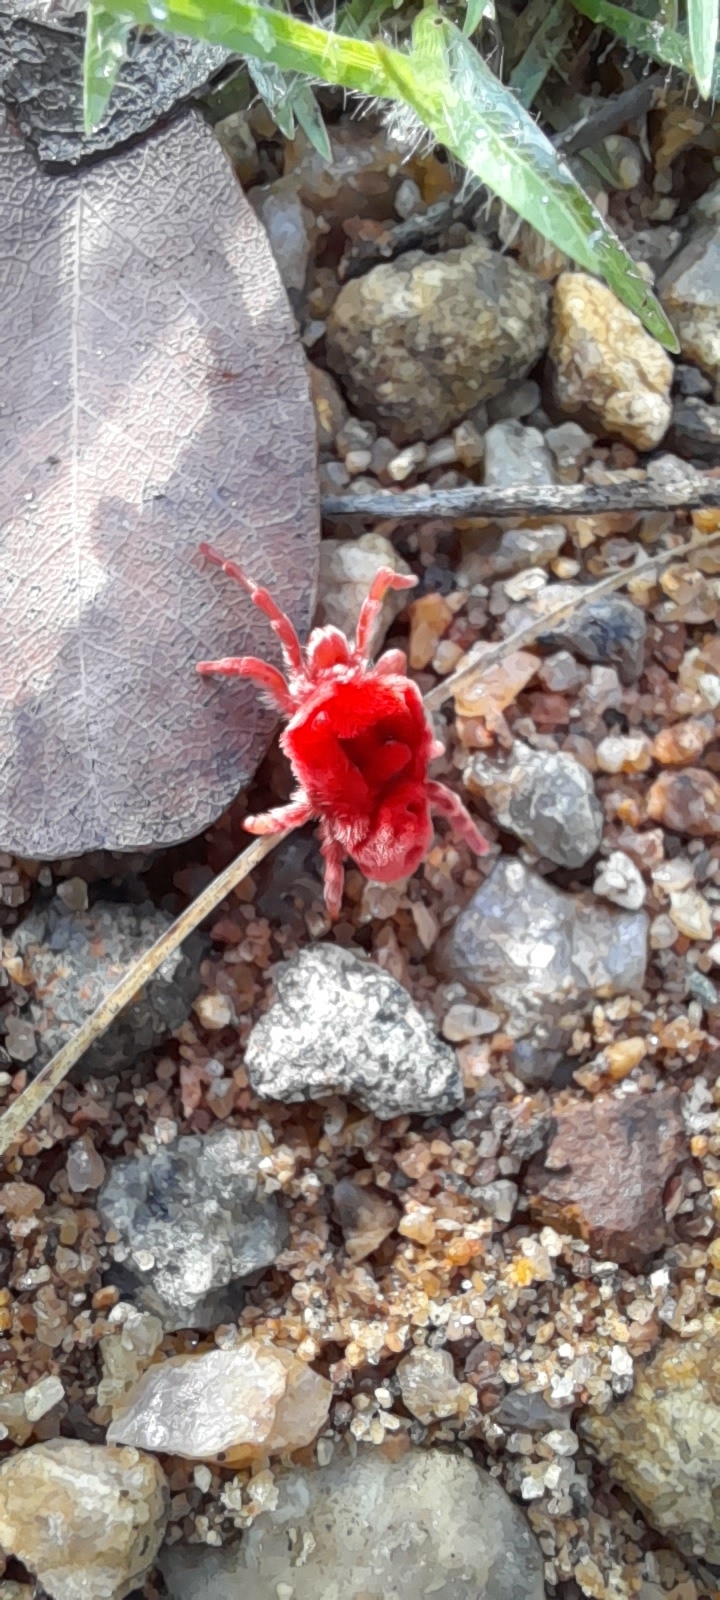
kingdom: Animalia
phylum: Arthropoda
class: Arachnida
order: Trombidiformes
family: Leeuwenhoekiidae
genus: Dinothrombium
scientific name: Dinothrombium
